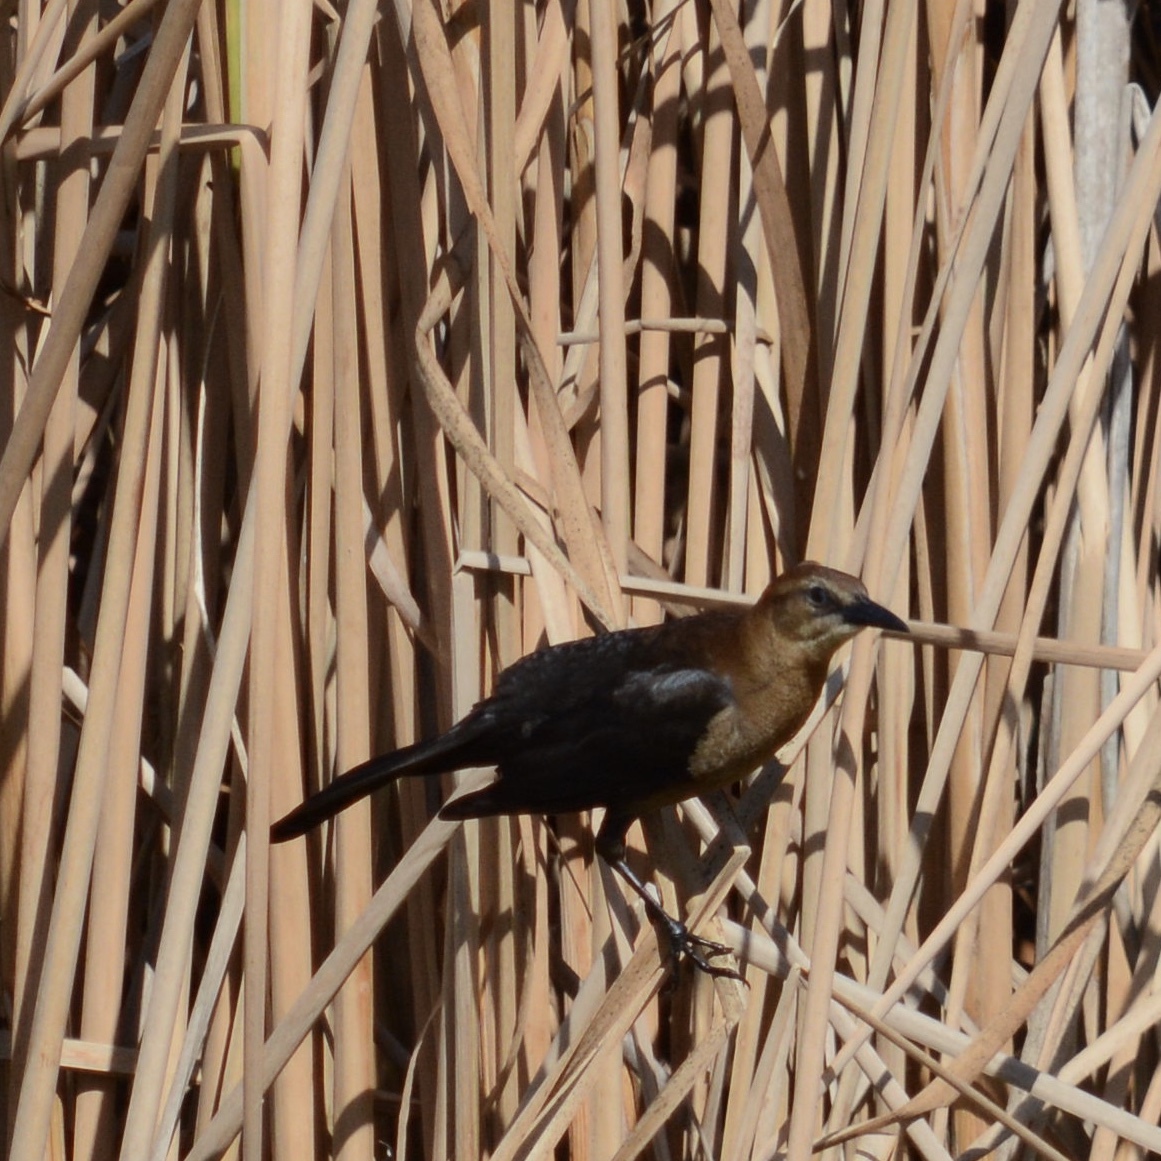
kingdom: Animalia
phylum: Chordata
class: Aves
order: Passeriformes
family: Icteridae
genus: Quiscalus
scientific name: Quiscalus major
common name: Boat-tailed grackle
